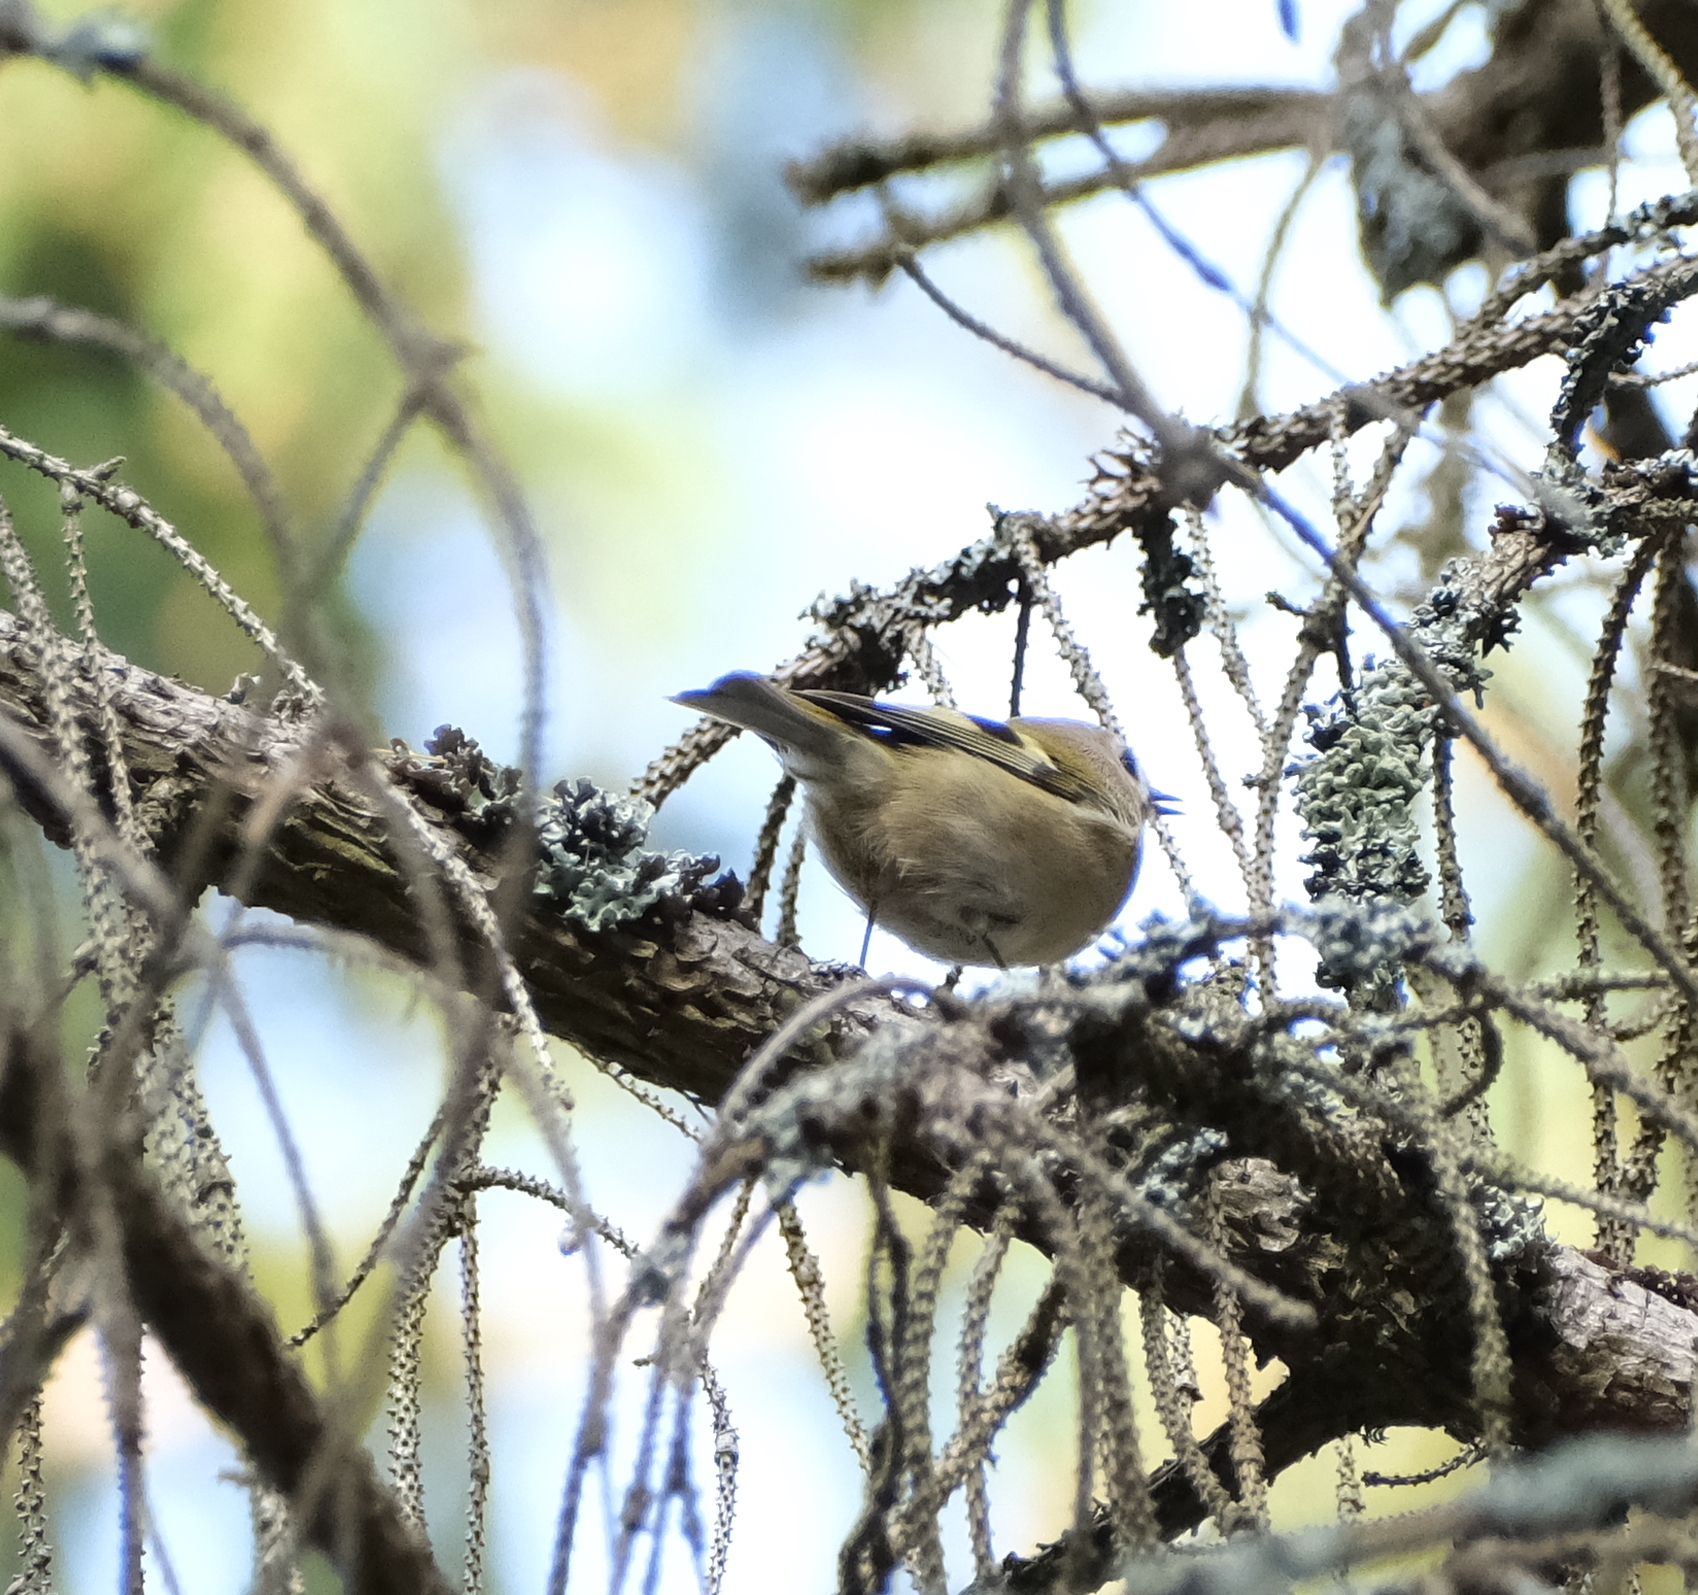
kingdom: Animalia
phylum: Chordata
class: Aves
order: Passeriformes
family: Regulidae
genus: Regulus
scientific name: Regulus regulus
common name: Goldcrest
